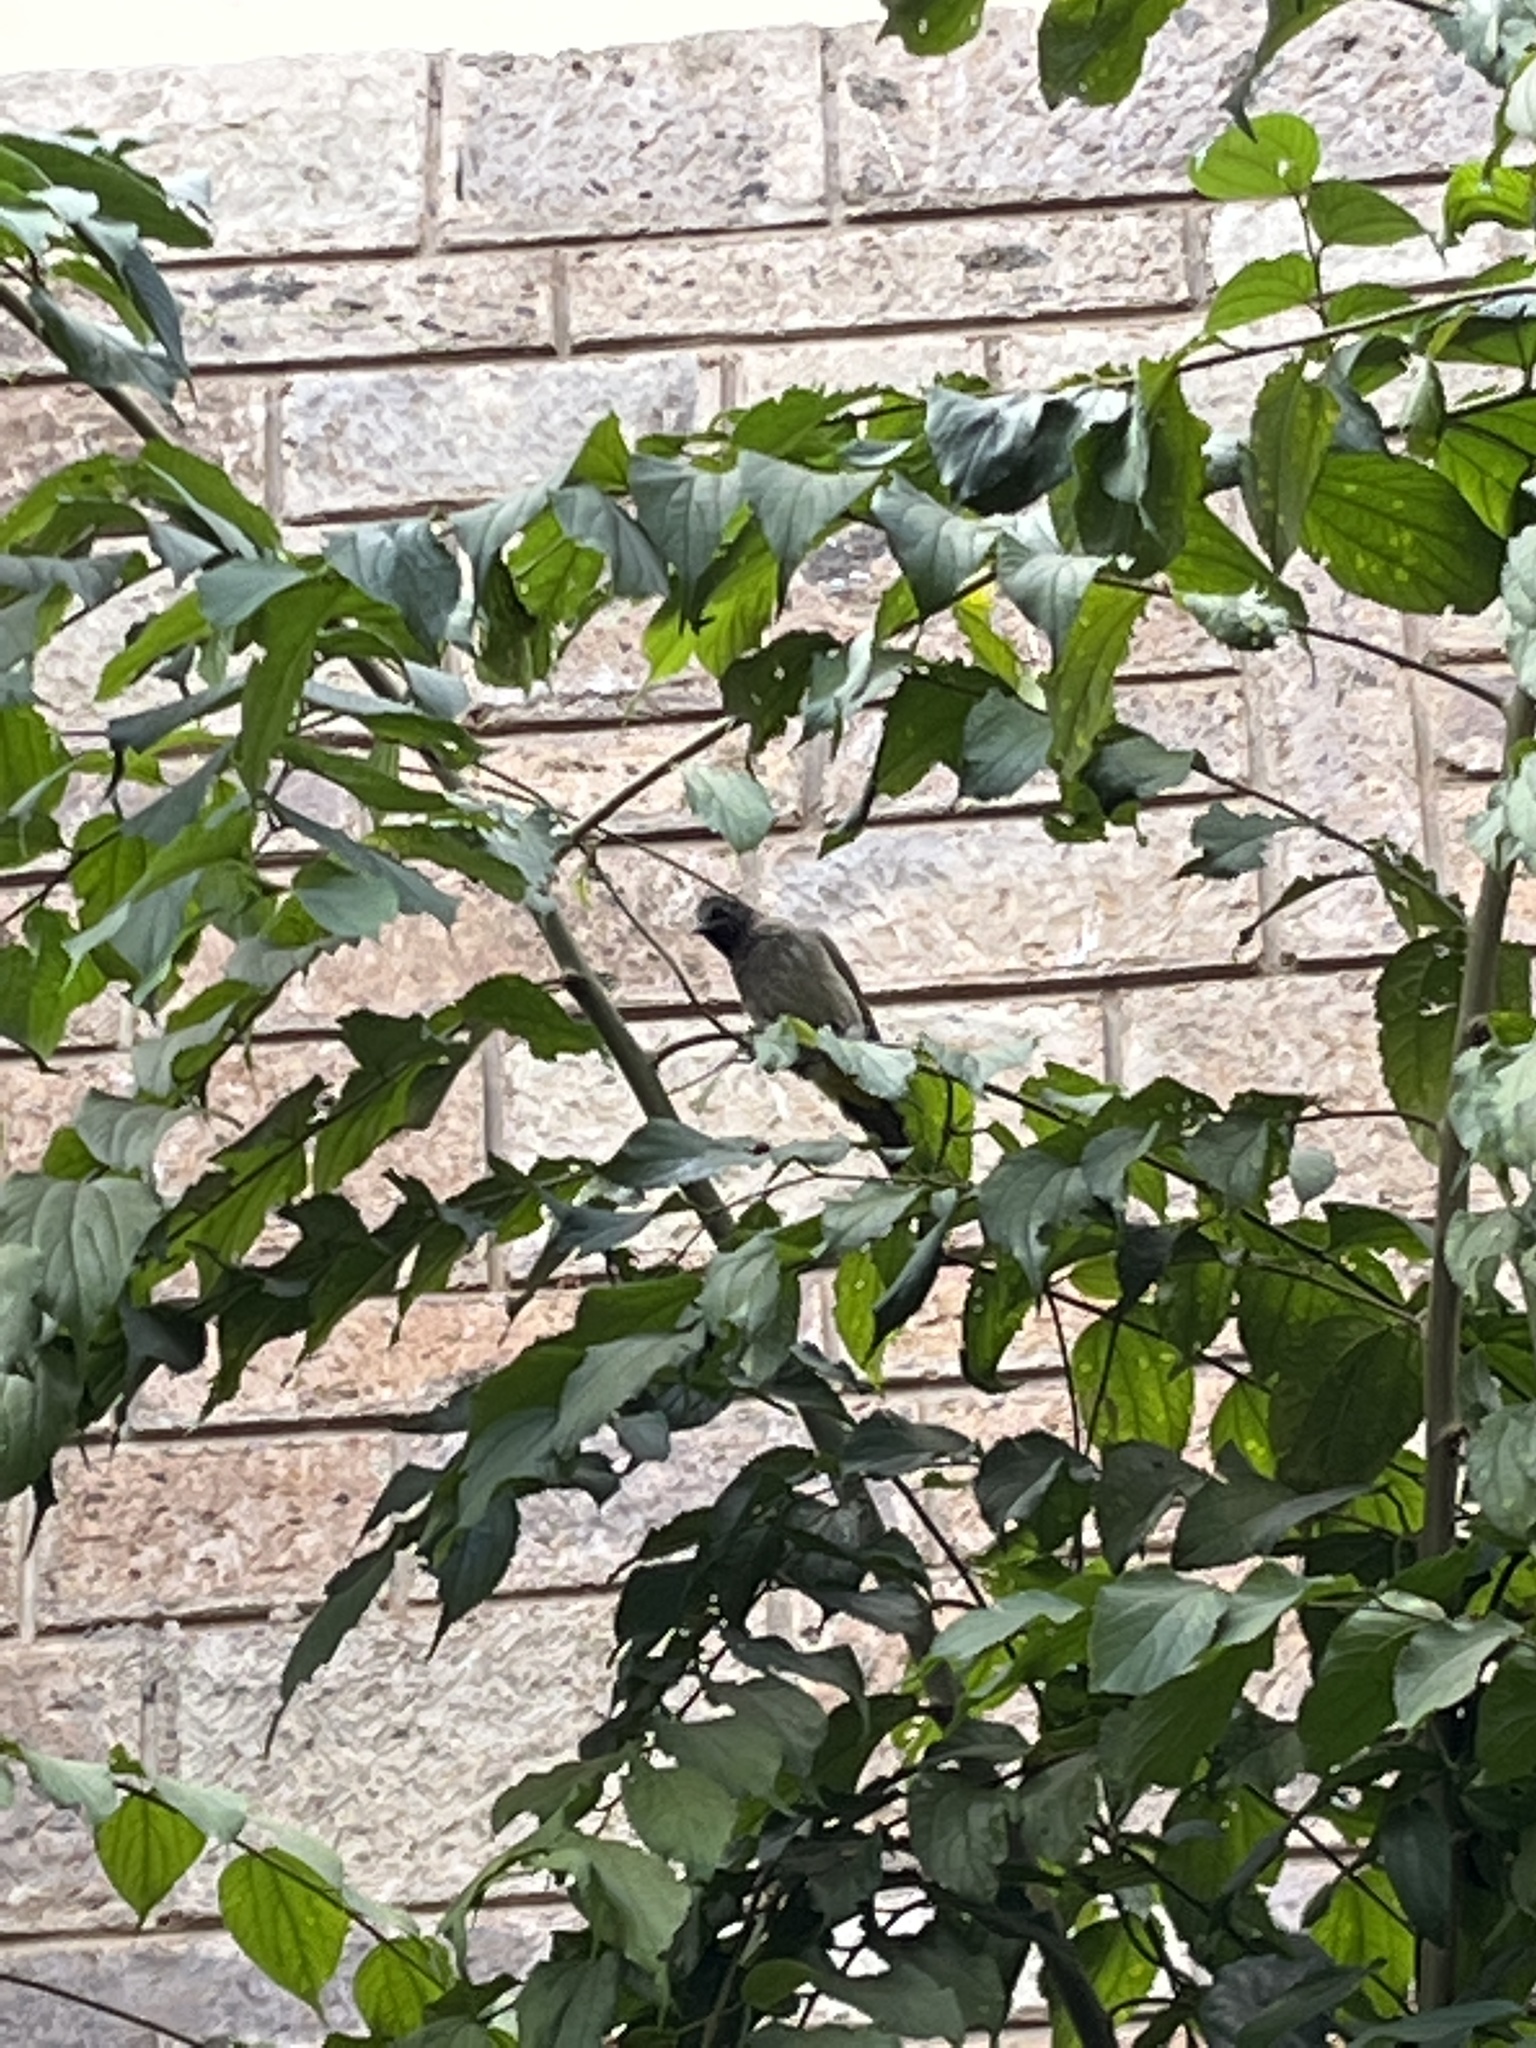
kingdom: Animalia
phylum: Chordata
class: Aves
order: Passeriformes
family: Pycnonotidae
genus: Pycnonotus
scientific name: Pycnonotus barbatus
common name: Common bulbul
